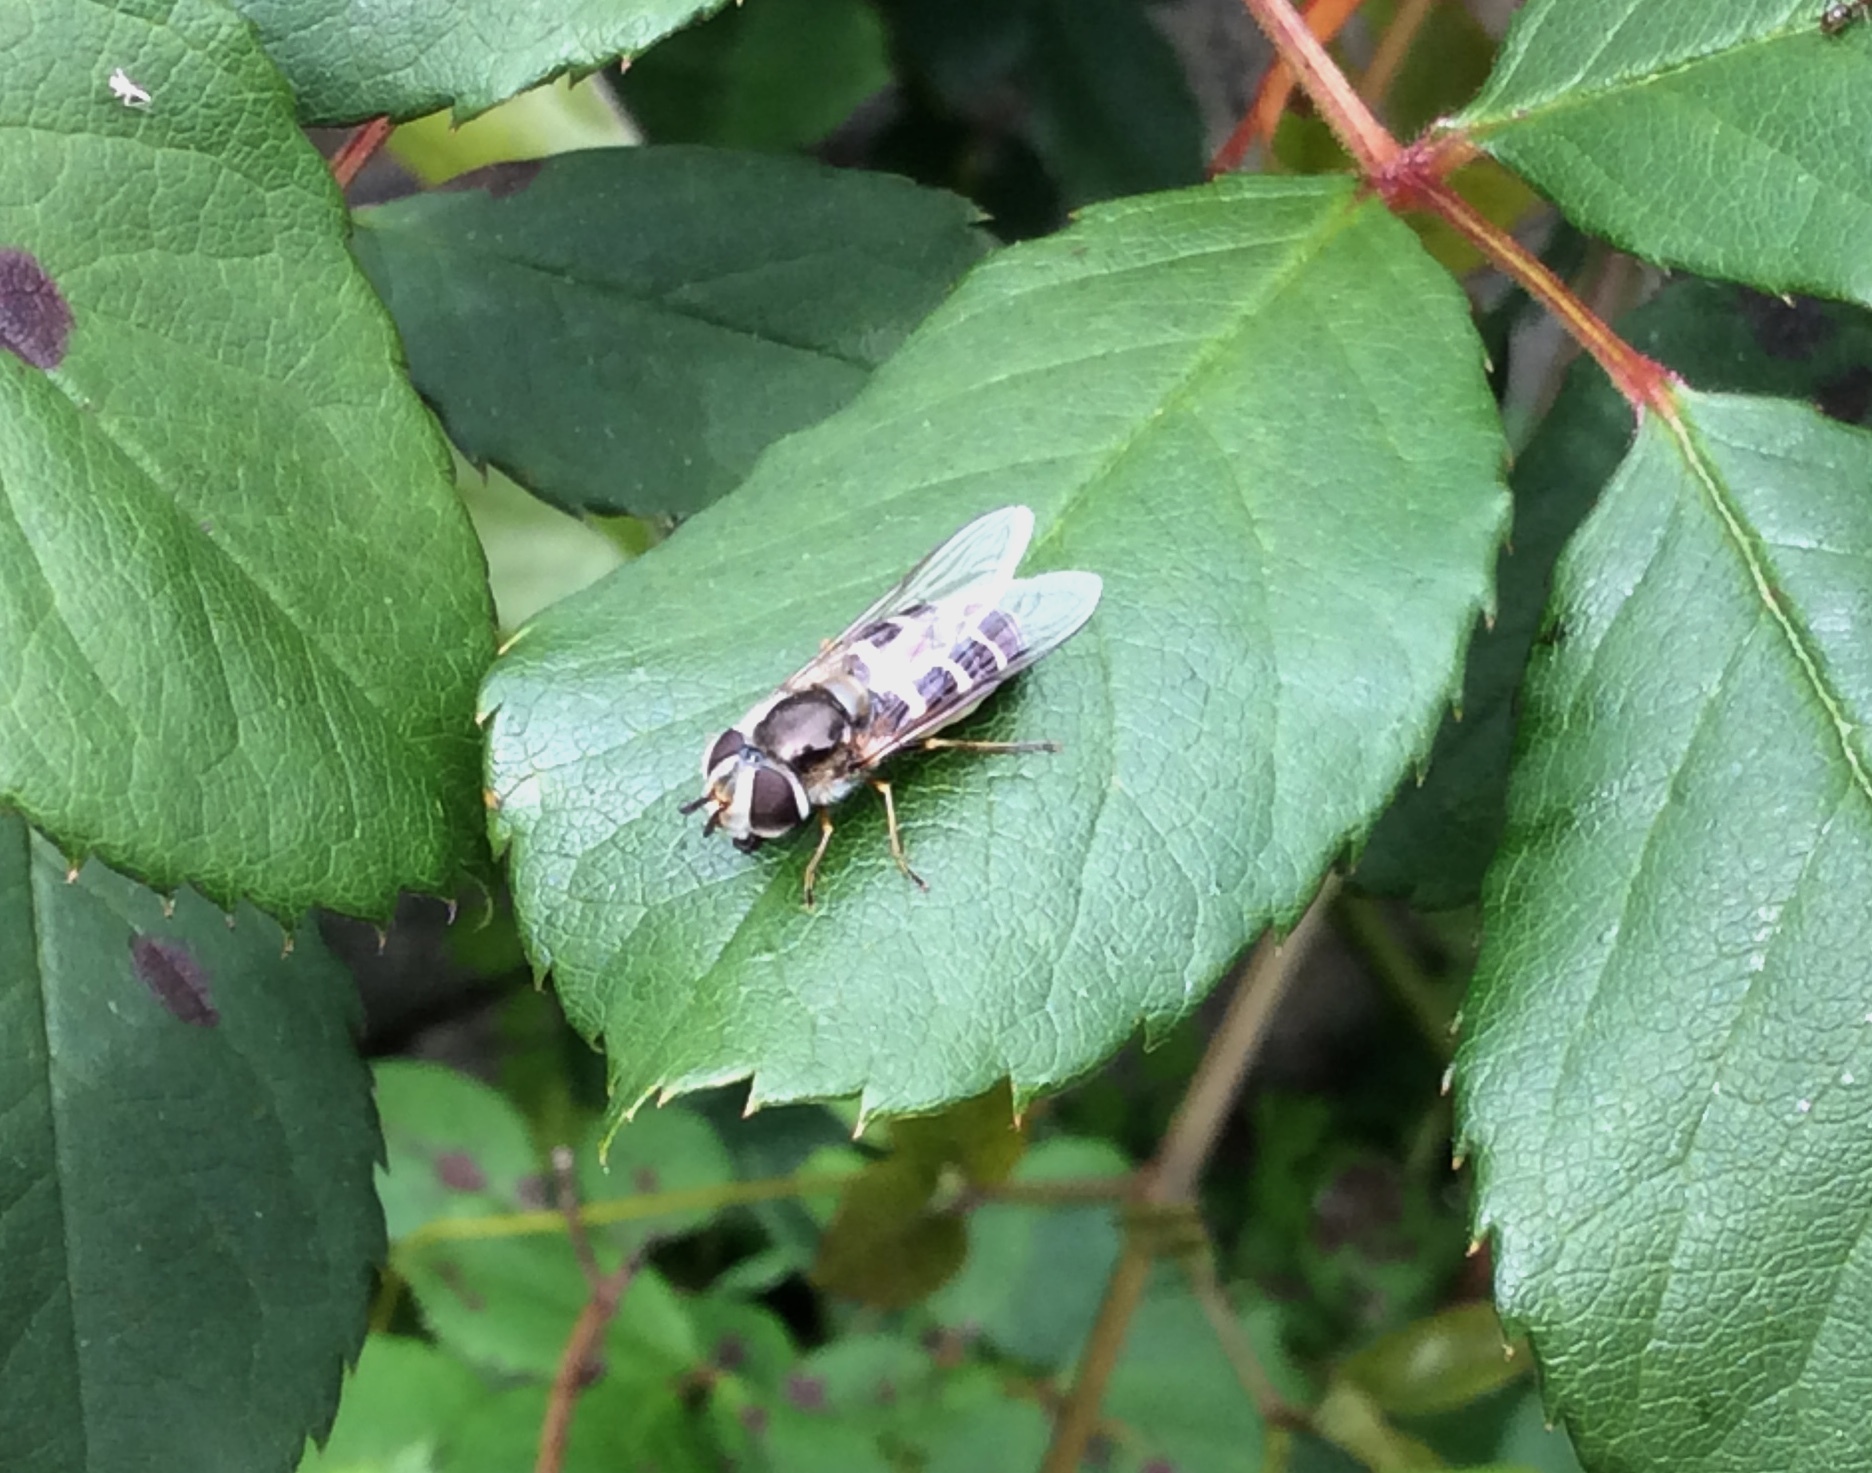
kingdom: Animalia
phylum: Arthropoda
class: Insecta
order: Diptera
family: Syrphidae
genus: Scaeva
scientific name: Scaeva affinis
